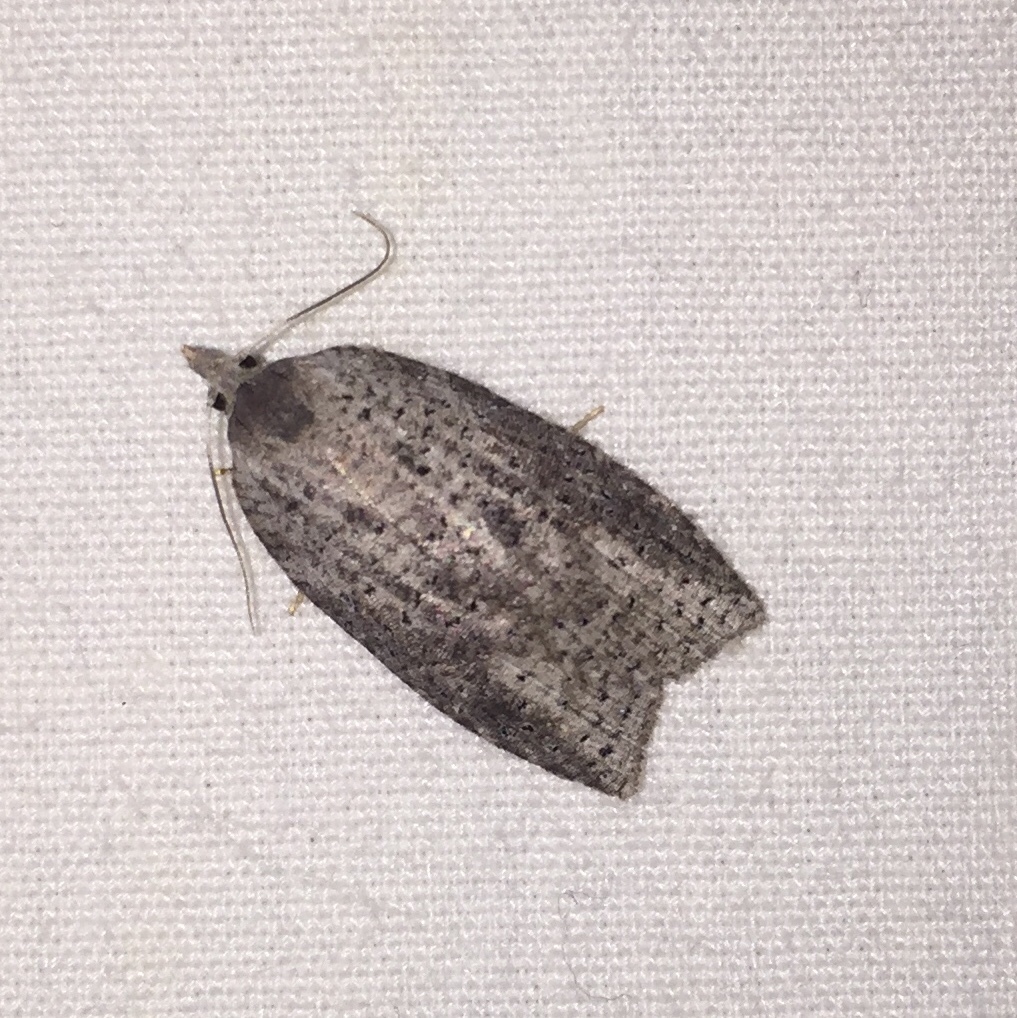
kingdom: Animalia
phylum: Arthropoda
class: Insecta
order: Lepidoptera
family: Tortricidae
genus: Amorbia
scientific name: Amorbia humerosana
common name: White-lined leafroller moth
